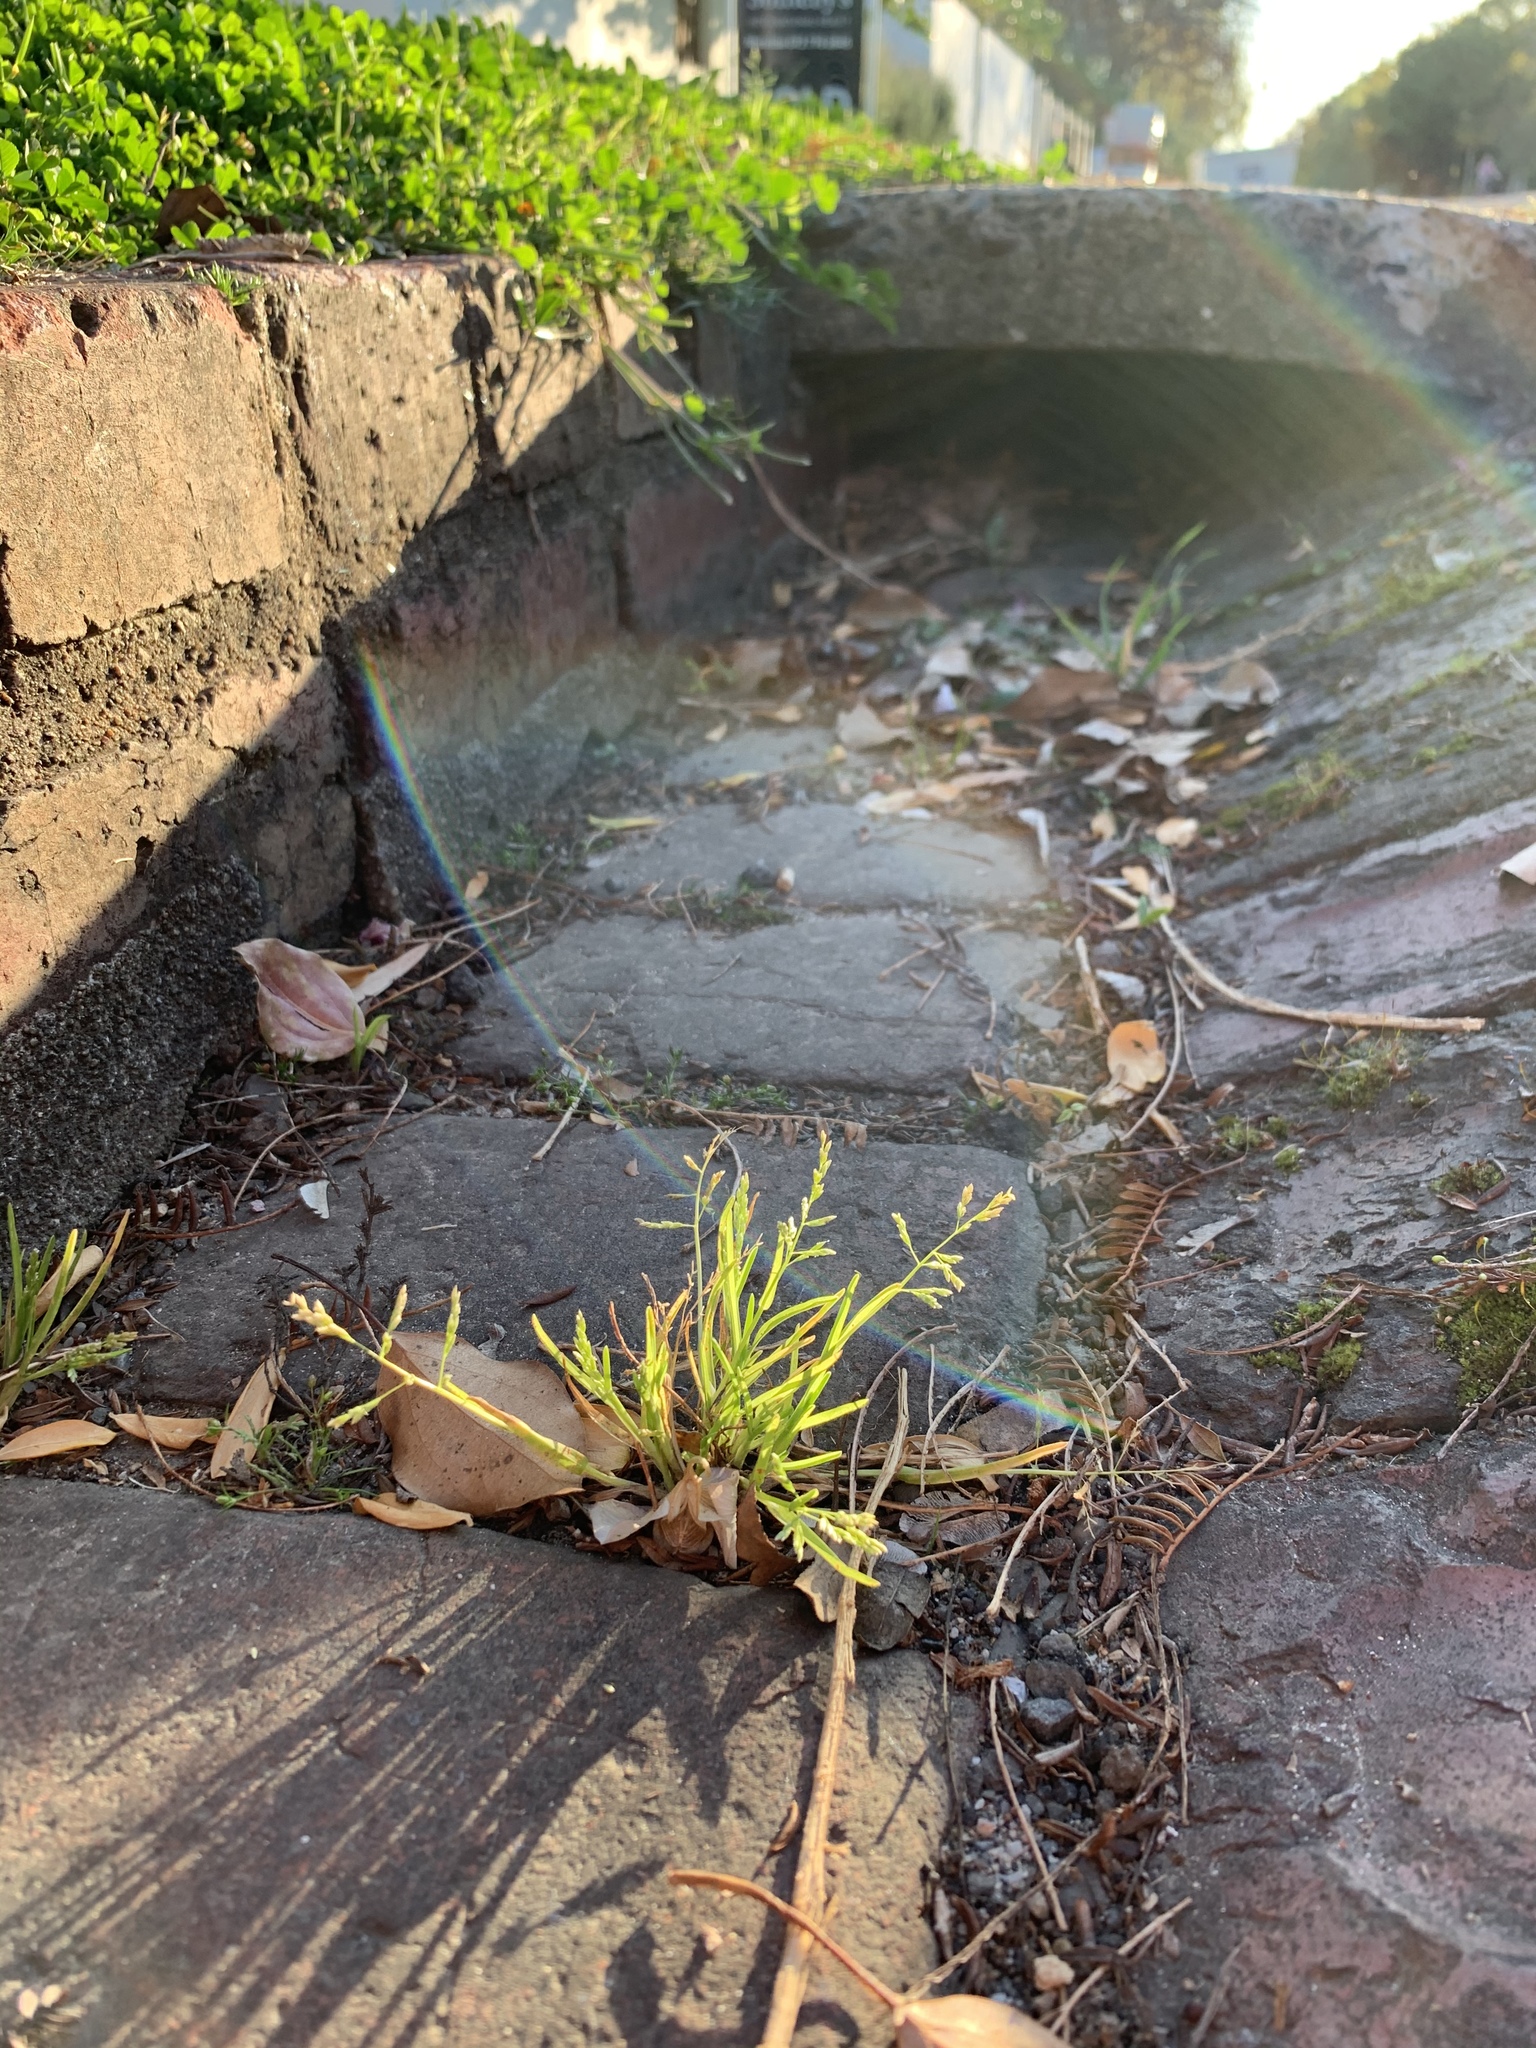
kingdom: Plantae
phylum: Tracheophyta
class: Liliopsida
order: Poales
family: Poaceae
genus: Poa
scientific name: Poa annua
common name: Annual bluegrass
